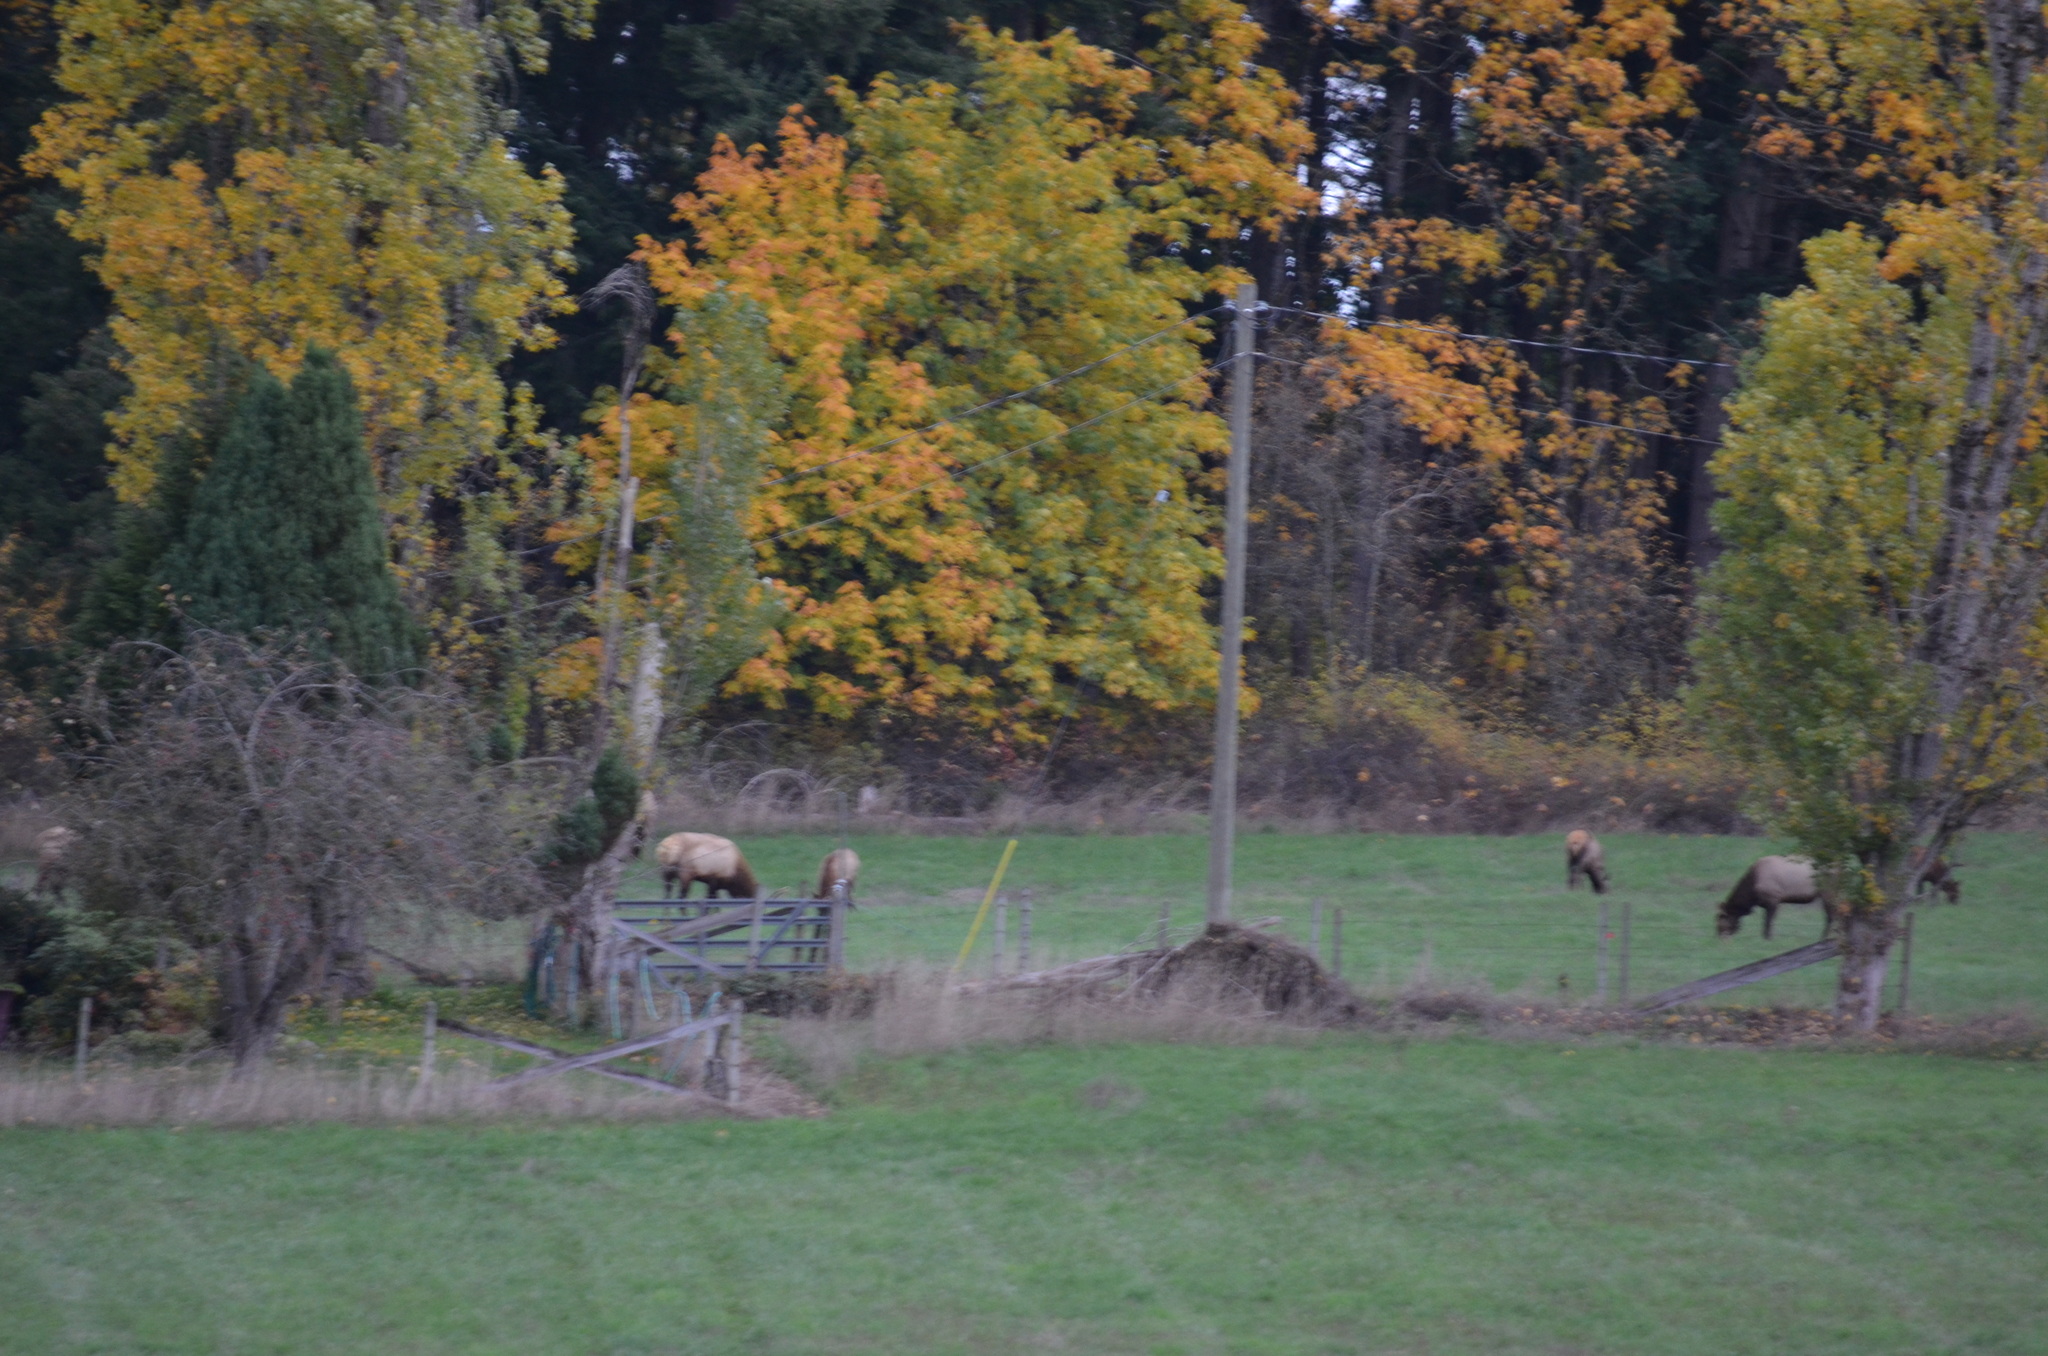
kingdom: Animalia
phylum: Chordata
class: Mammalia
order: Artiodactyla
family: Cervidae
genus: Cervus
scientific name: Cervus elaphus
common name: Red deer
